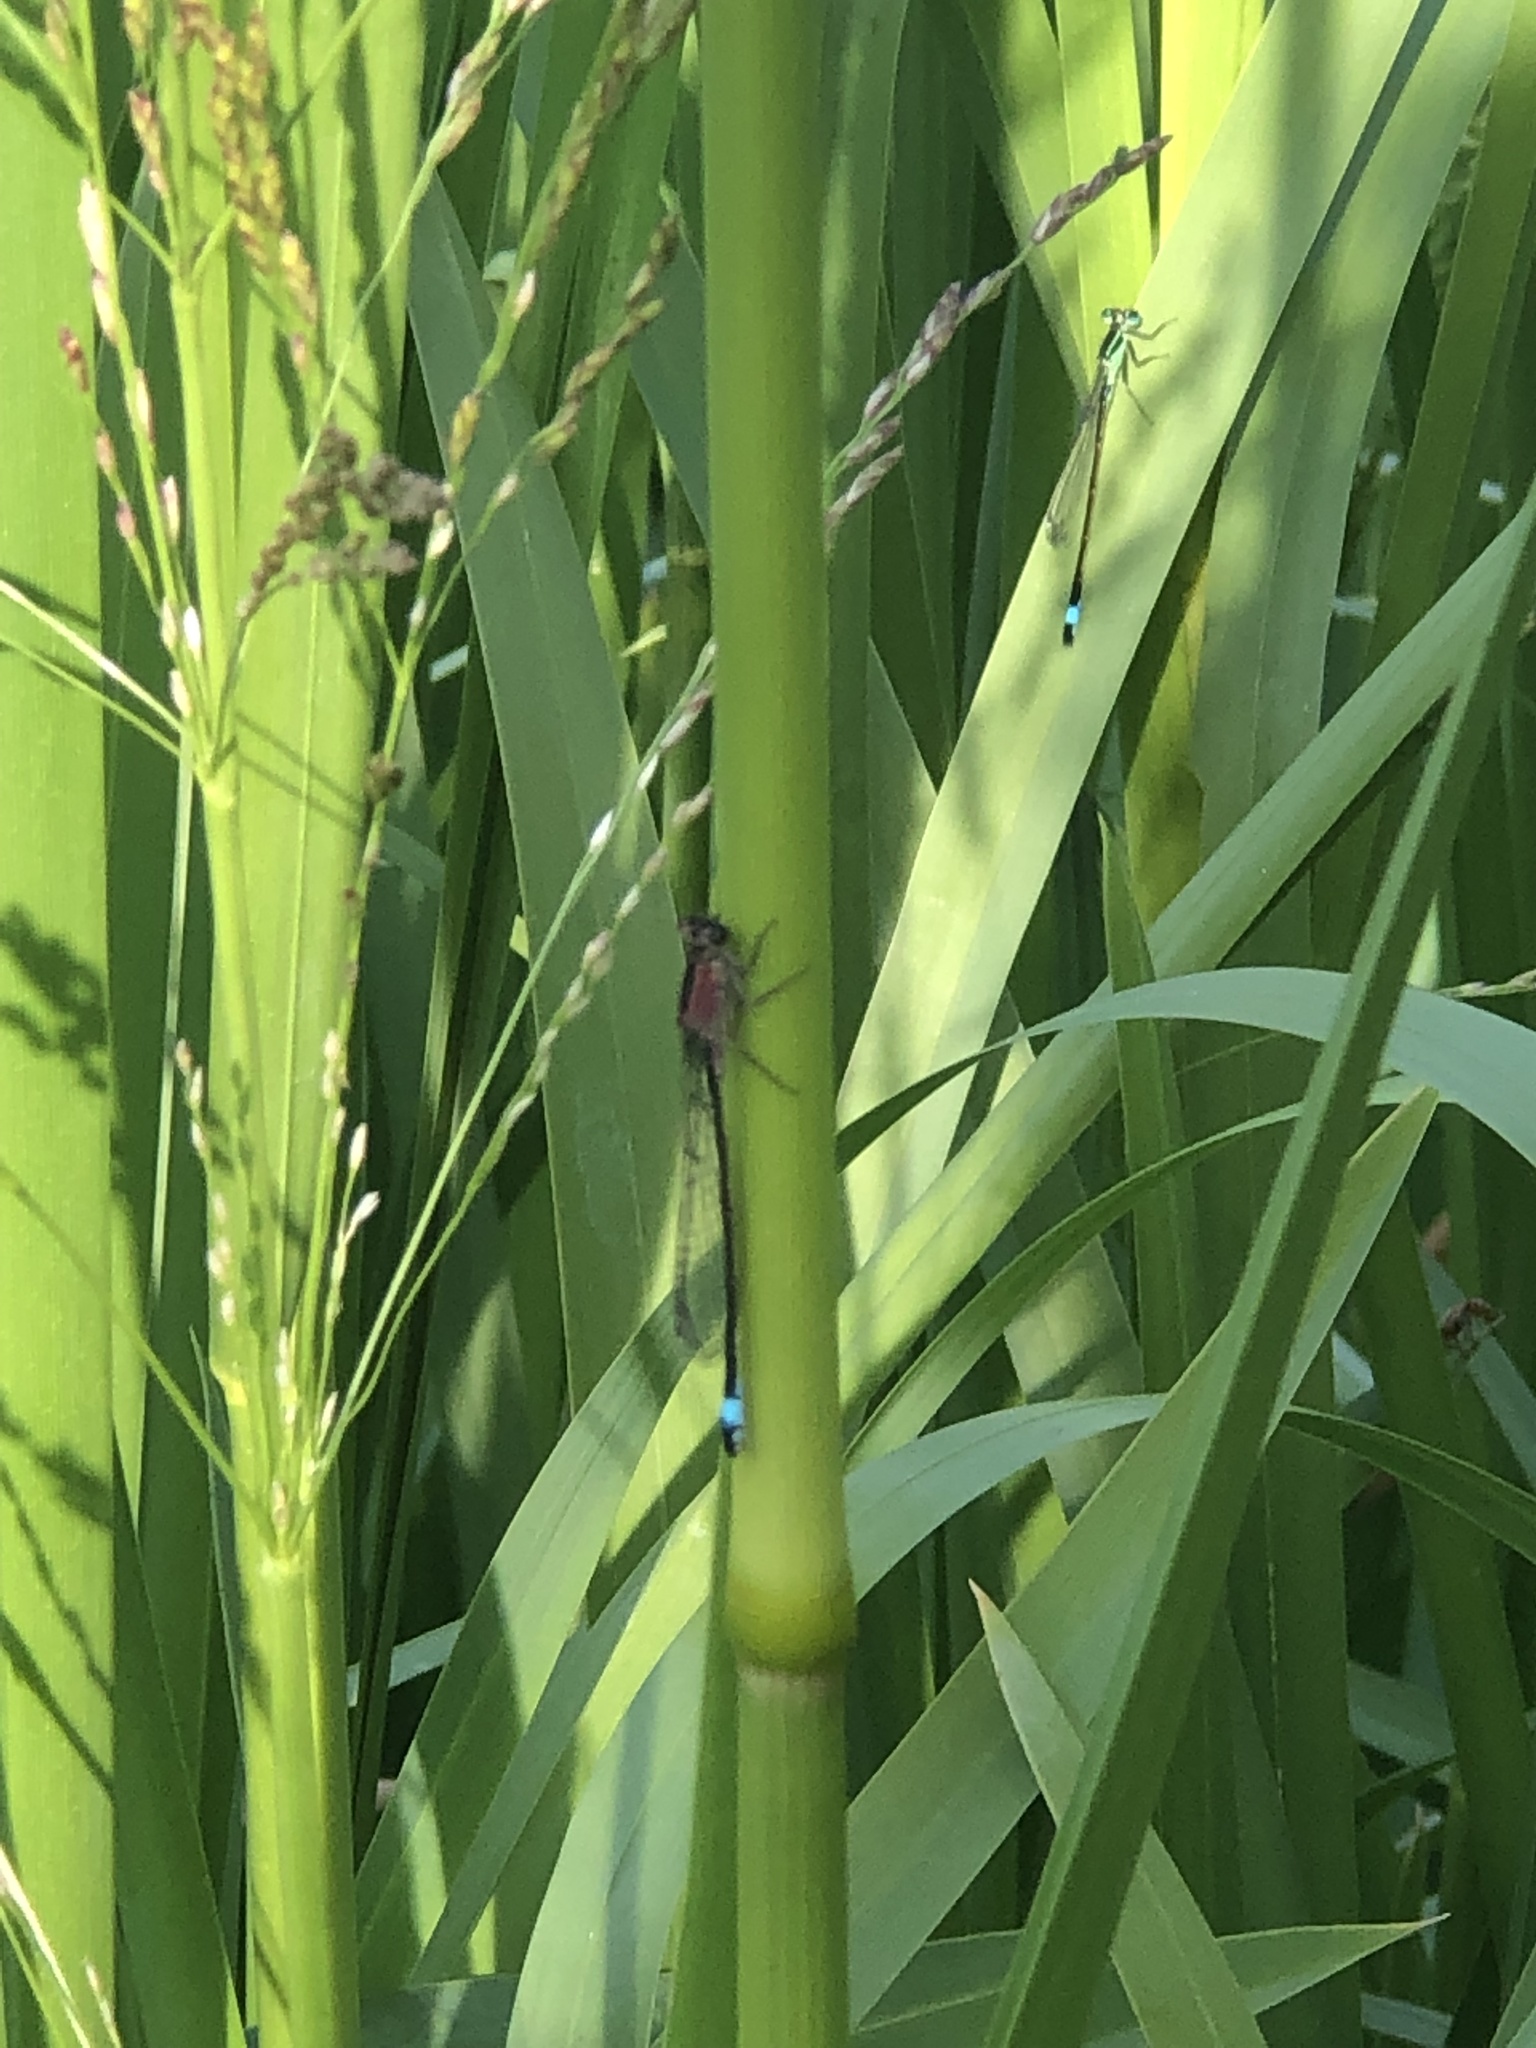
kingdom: Animalia
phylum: Arthropoda
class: Insecta
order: Odonata
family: Coenagrionidae
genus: Ischnura
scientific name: Ischnura elegans
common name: Blue-tailed damselfly
